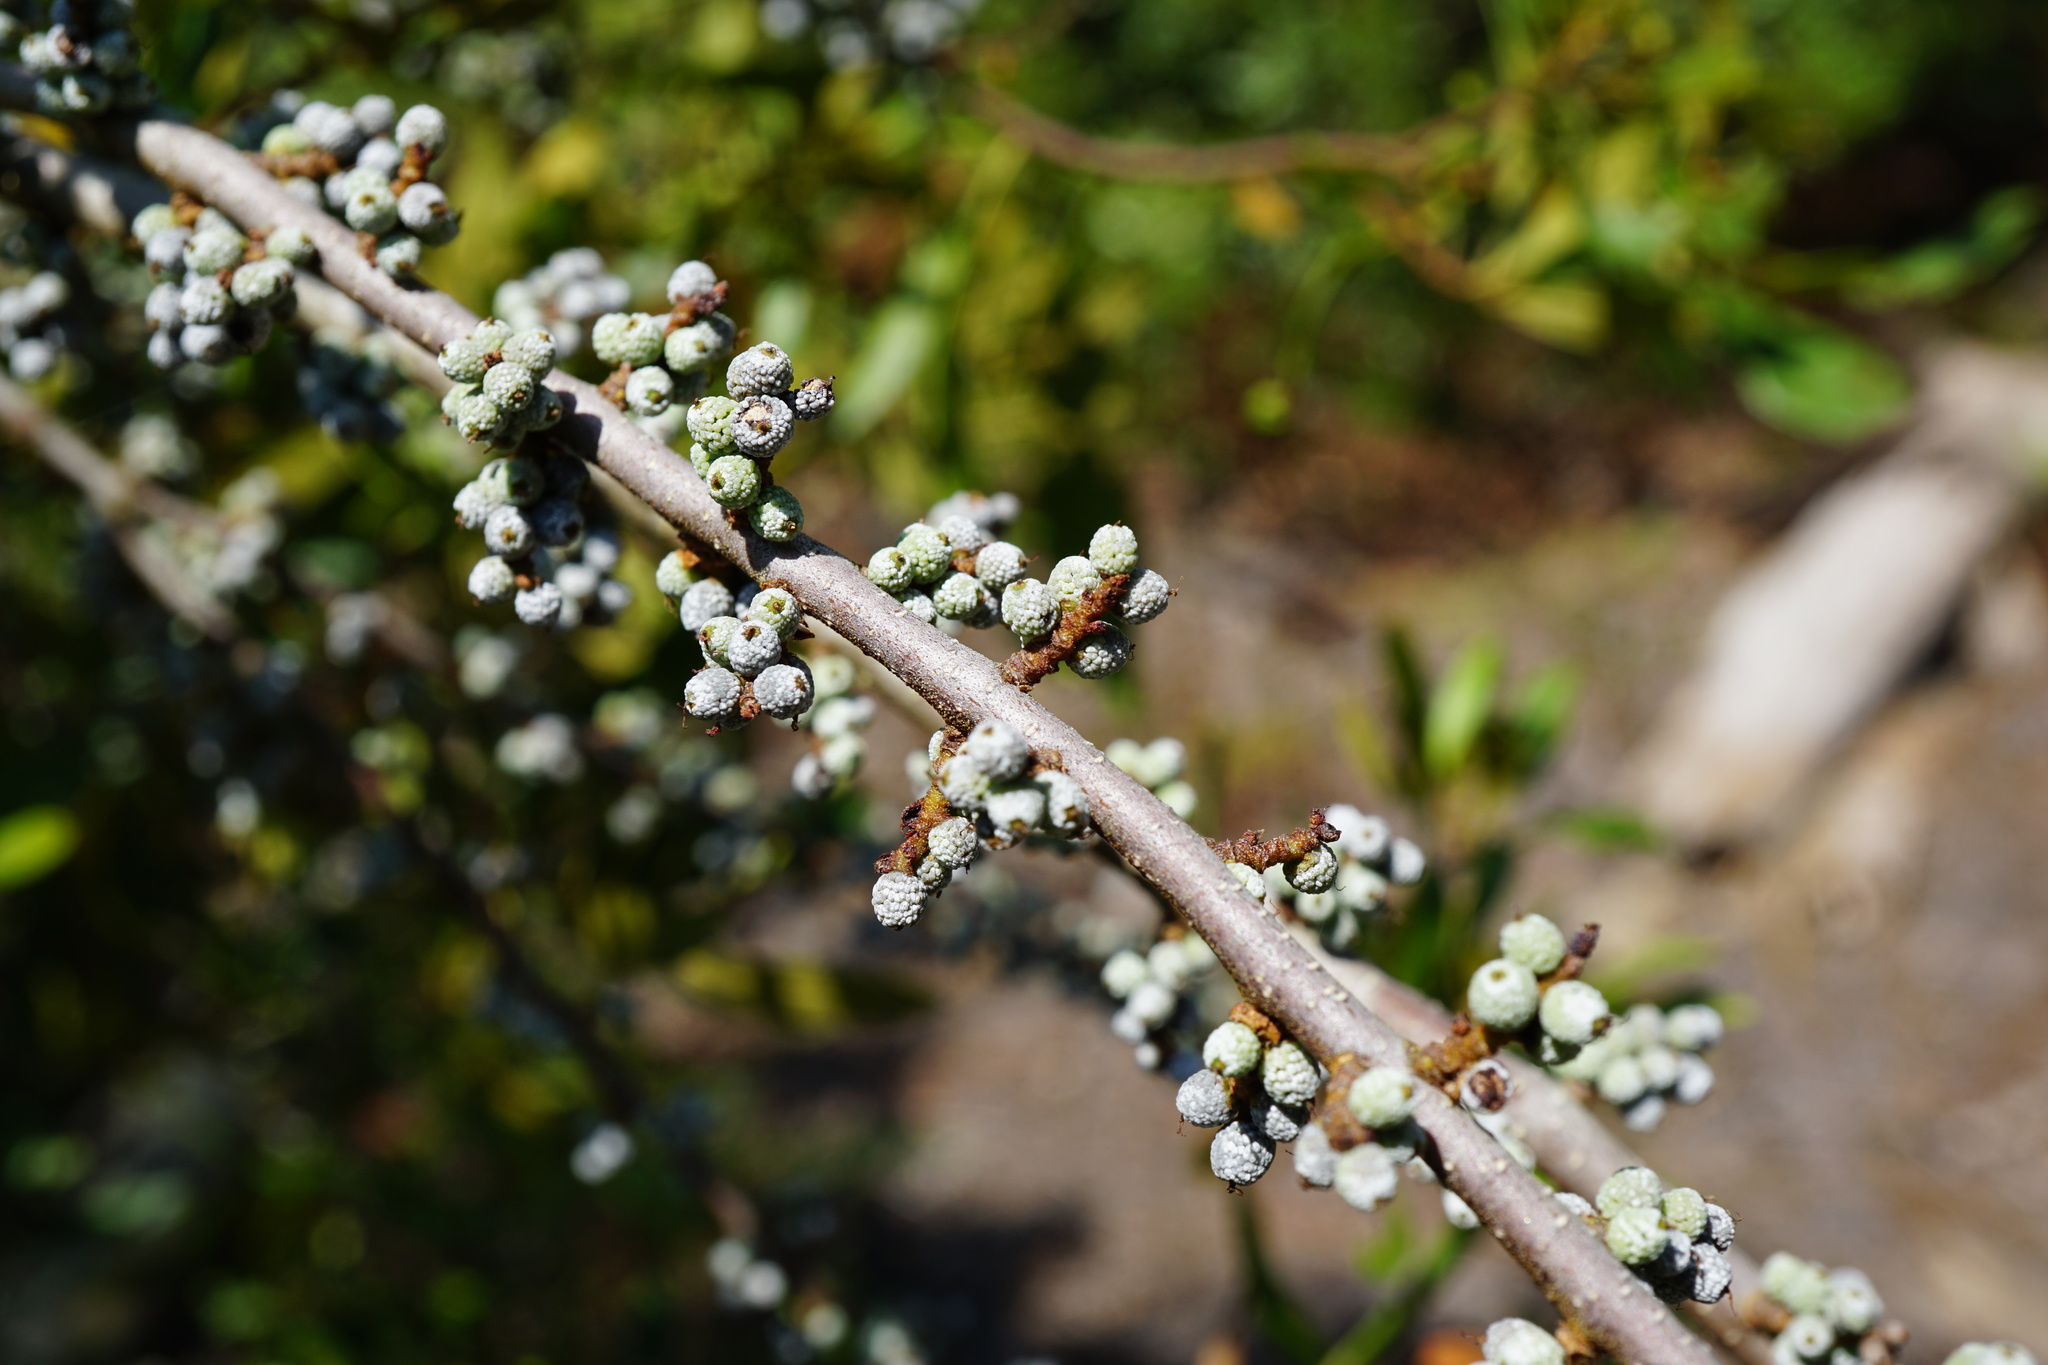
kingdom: Plantae
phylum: Tracheophyta
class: Magnoliopsida
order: Fagales
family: Myricaceae
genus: Morella
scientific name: Morella cerifera
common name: Wax myrtle
